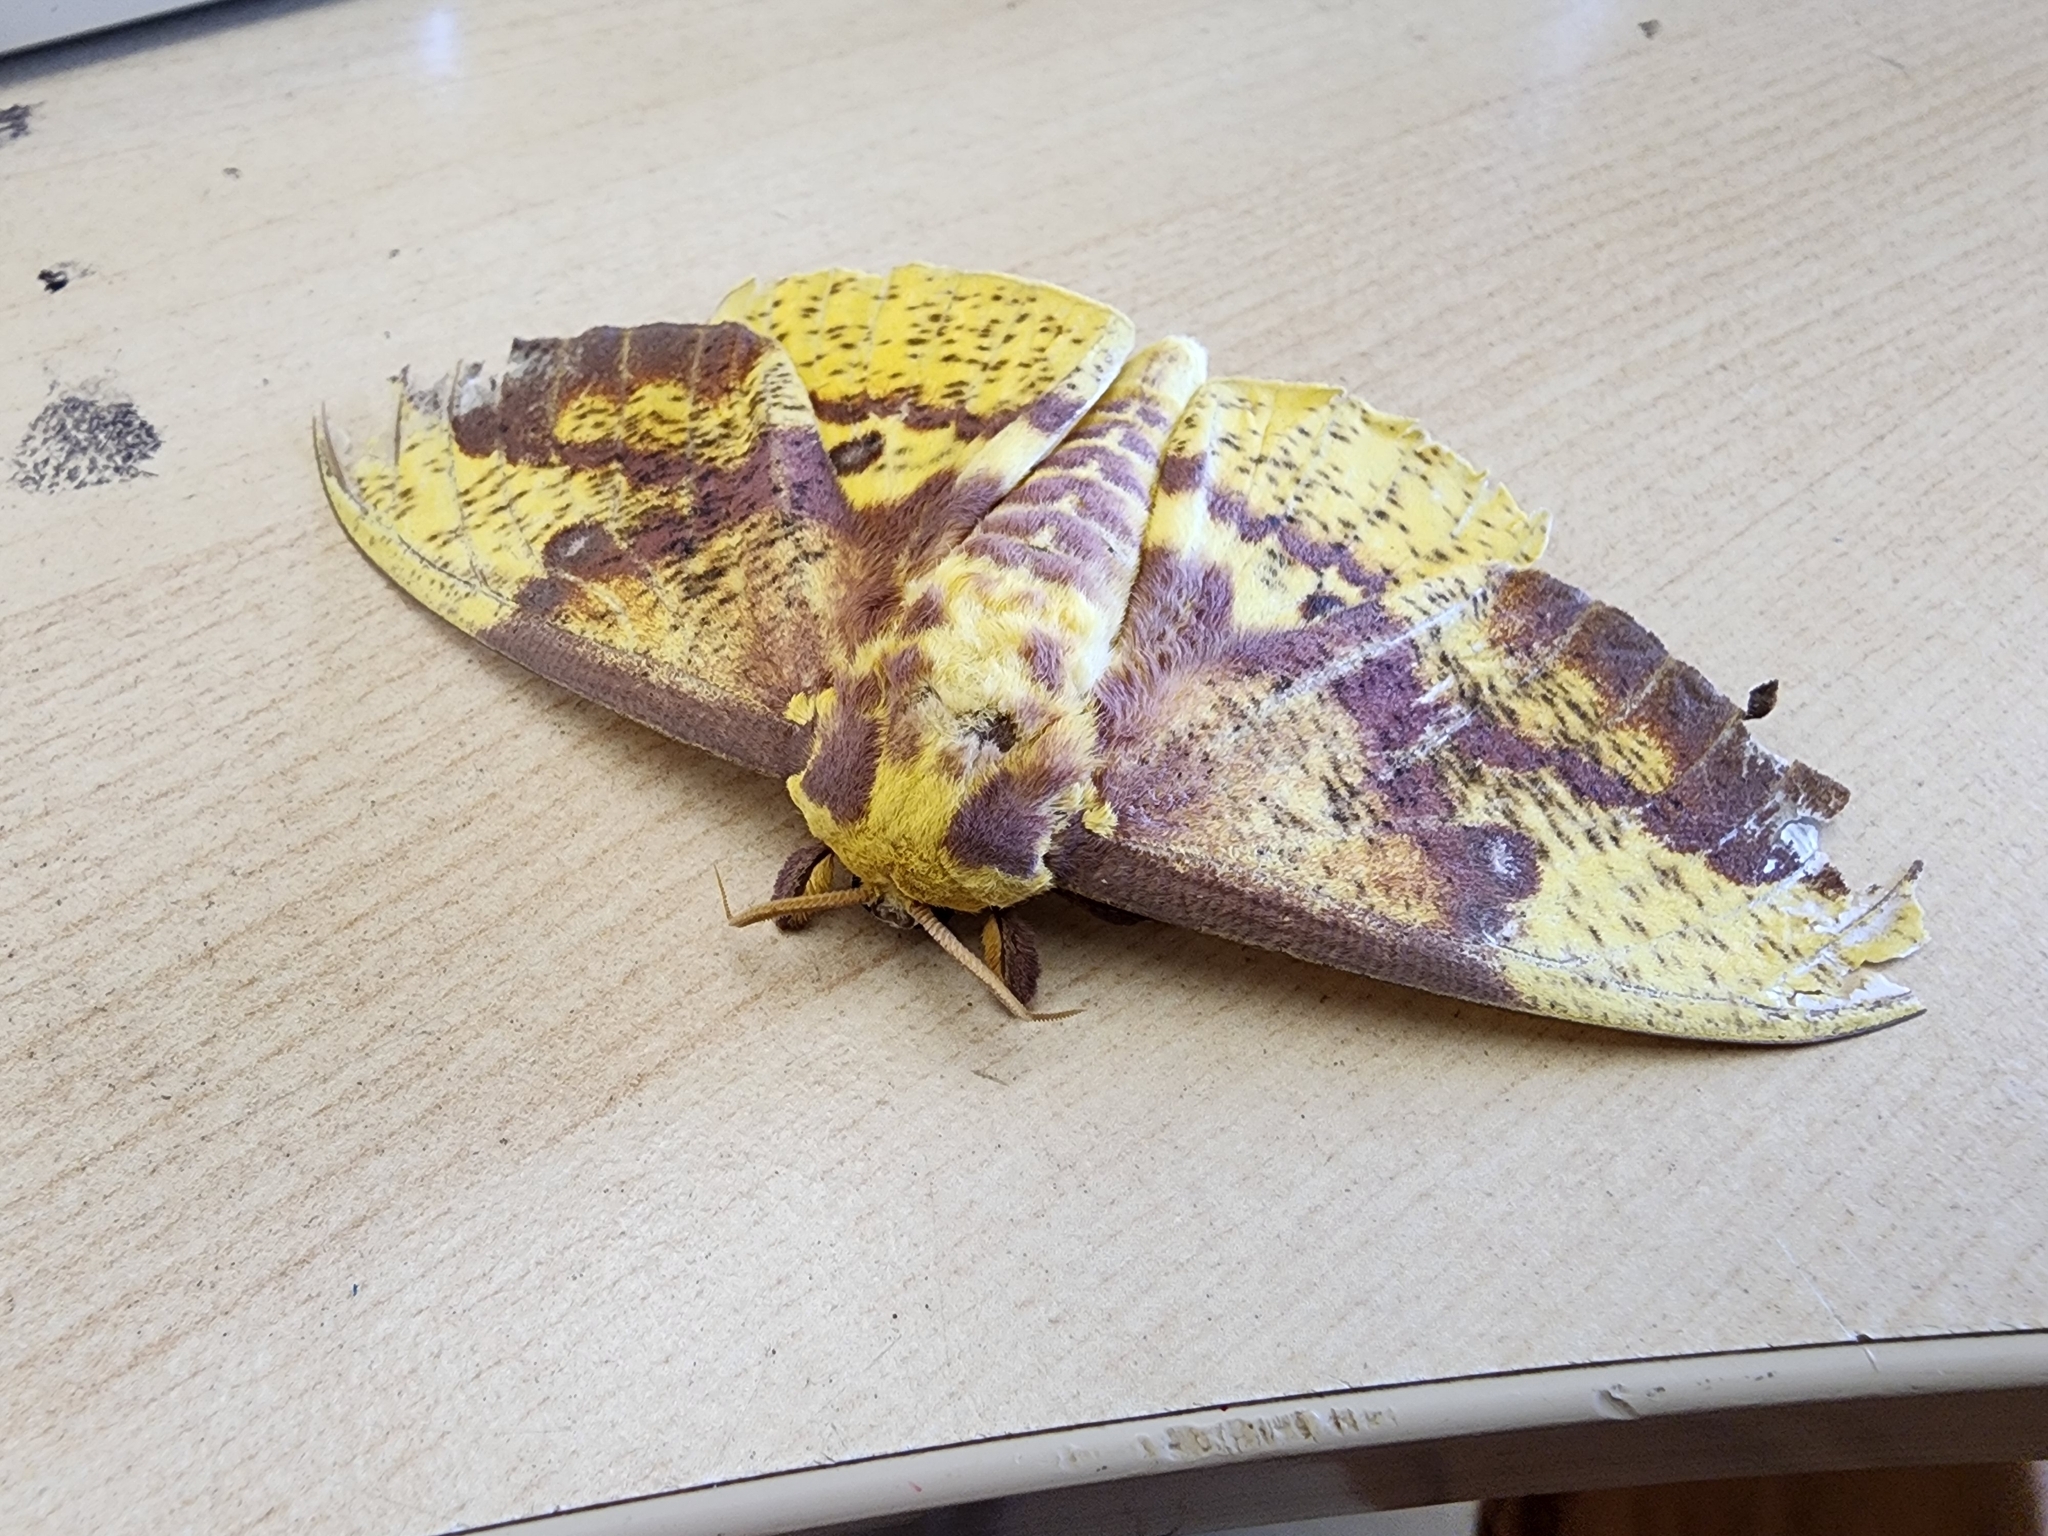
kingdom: Animalia
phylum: Arthropoda
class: Insecta
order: Lepidoptera
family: Saturniidae
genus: Eacles
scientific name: Eacles imperialis
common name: Imperial moth
